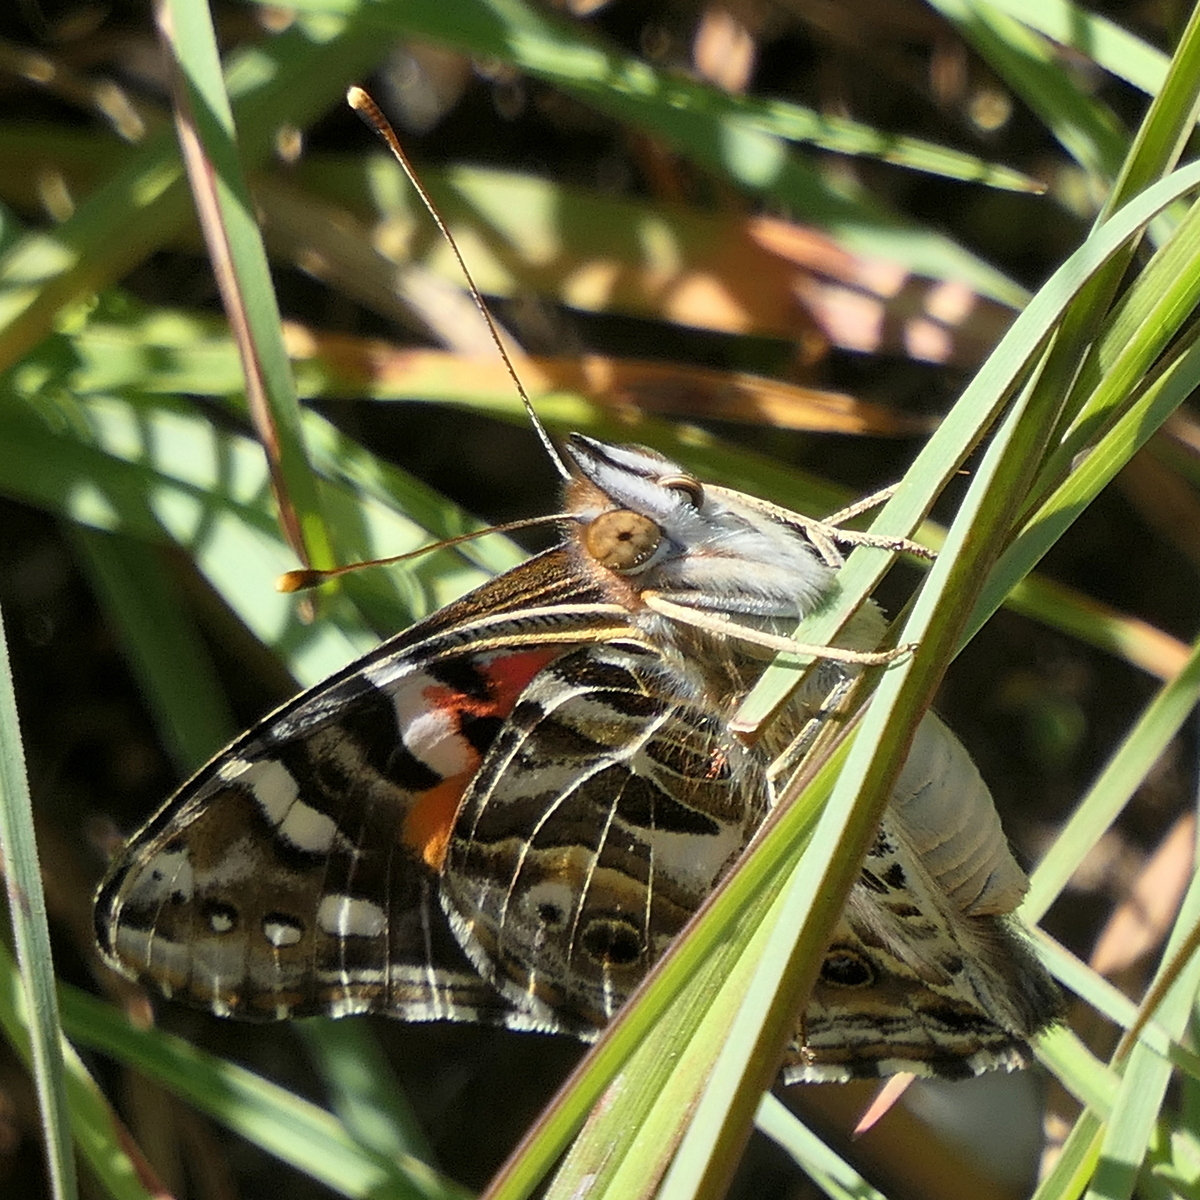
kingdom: Animalia
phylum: Arthropoda
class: Insecta
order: Lepidoptera
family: Nymphalidae
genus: Vanessa
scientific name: Vanessa kershawi
